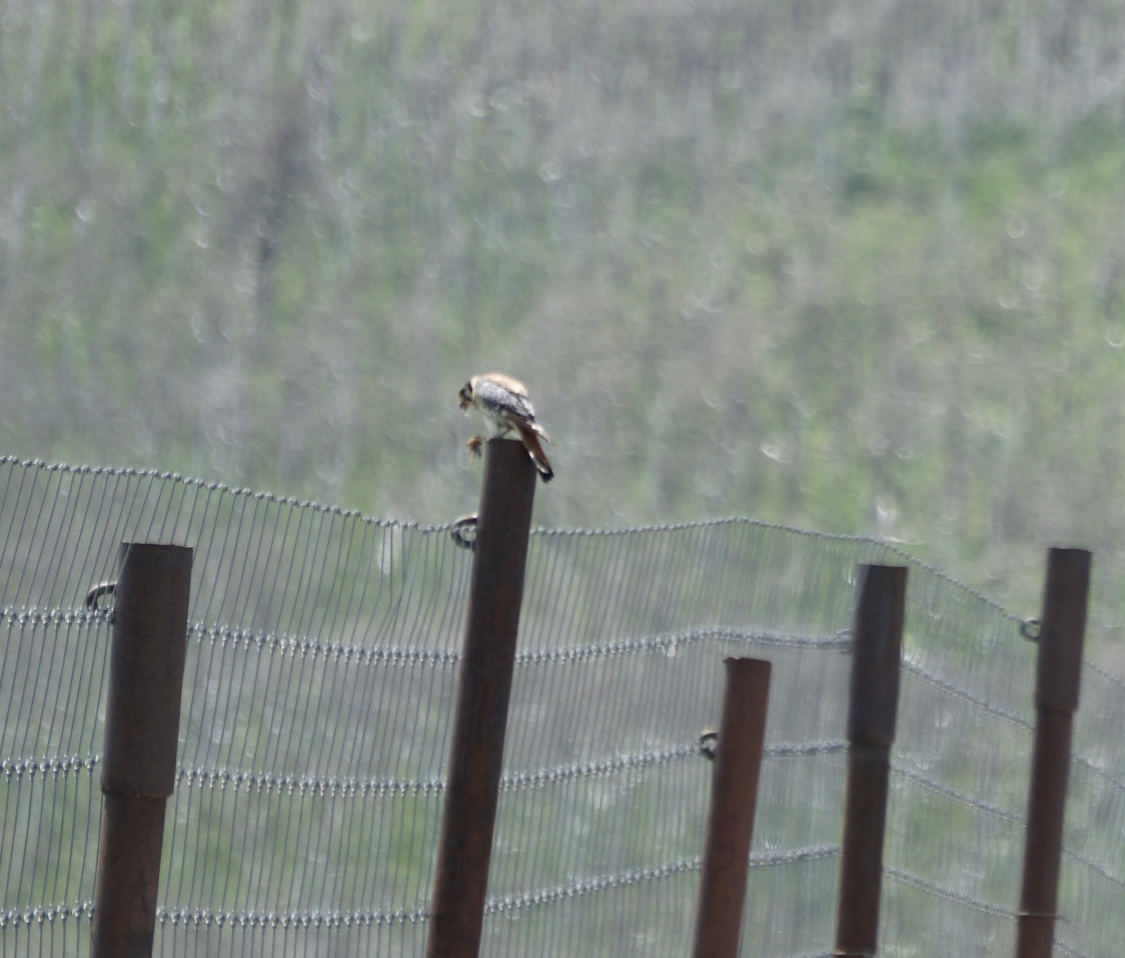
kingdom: Animalia
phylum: Chordata
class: Aves
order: Falconiformes
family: Falconidae
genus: Falco
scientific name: Falco sparverius
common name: American kestrel
